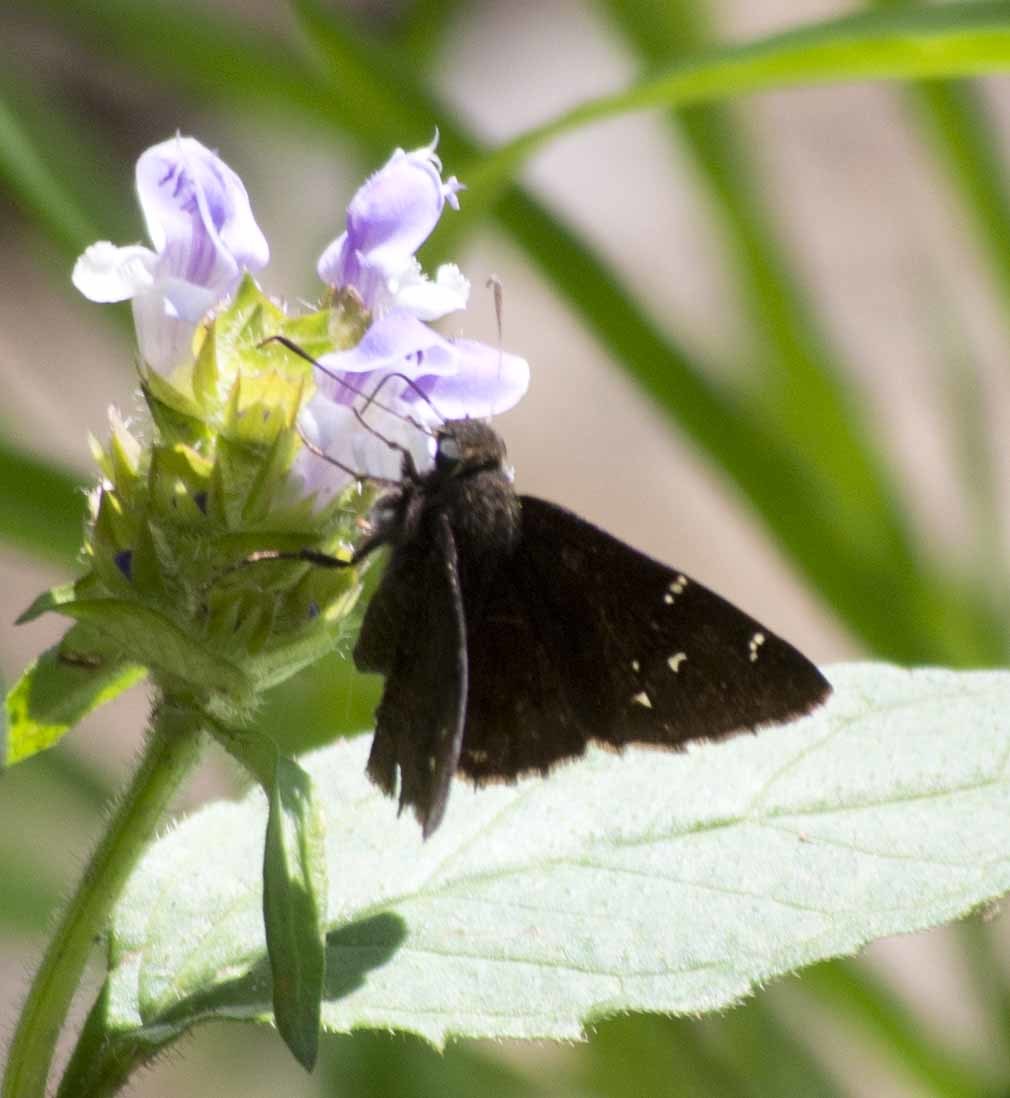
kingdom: Animalia
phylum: Arthropoda
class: Insecta
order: Lepidoptera
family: Hesperiidae
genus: Thorybes
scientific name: Thorybes pylades
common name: Northern cloudywing
